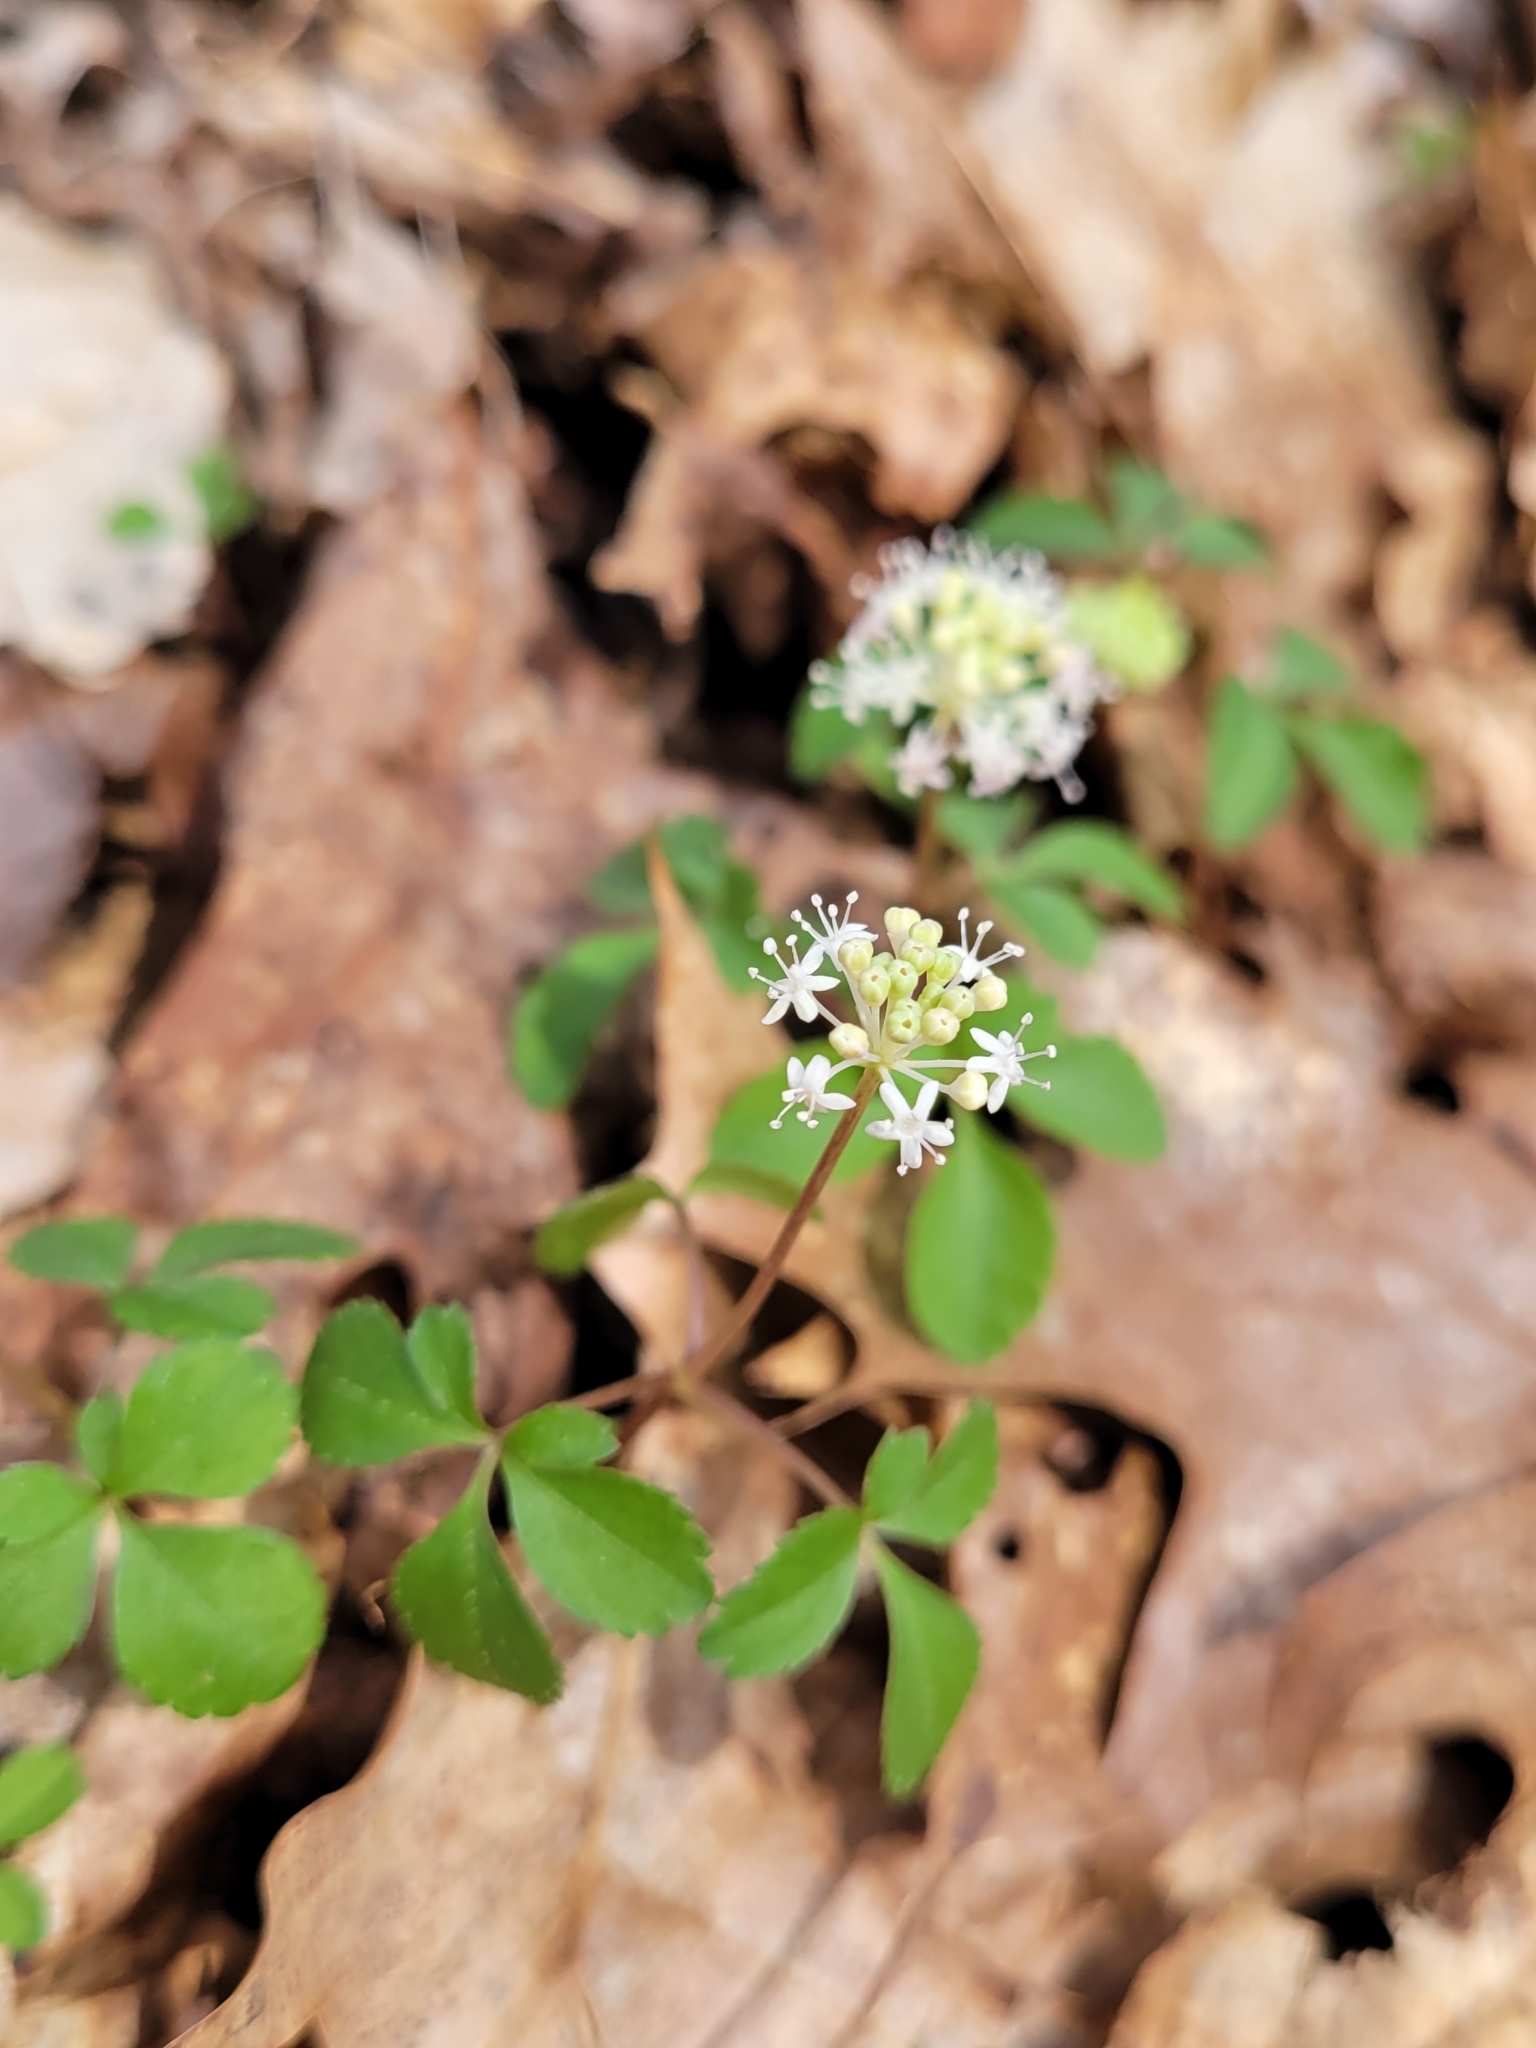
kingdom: Plantae
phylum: Tracheophyta
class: Magnoliopsida
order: Apiales
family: Araliaceae
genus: Panax
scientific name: Panax trifolius
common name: Dwarf ginseng
